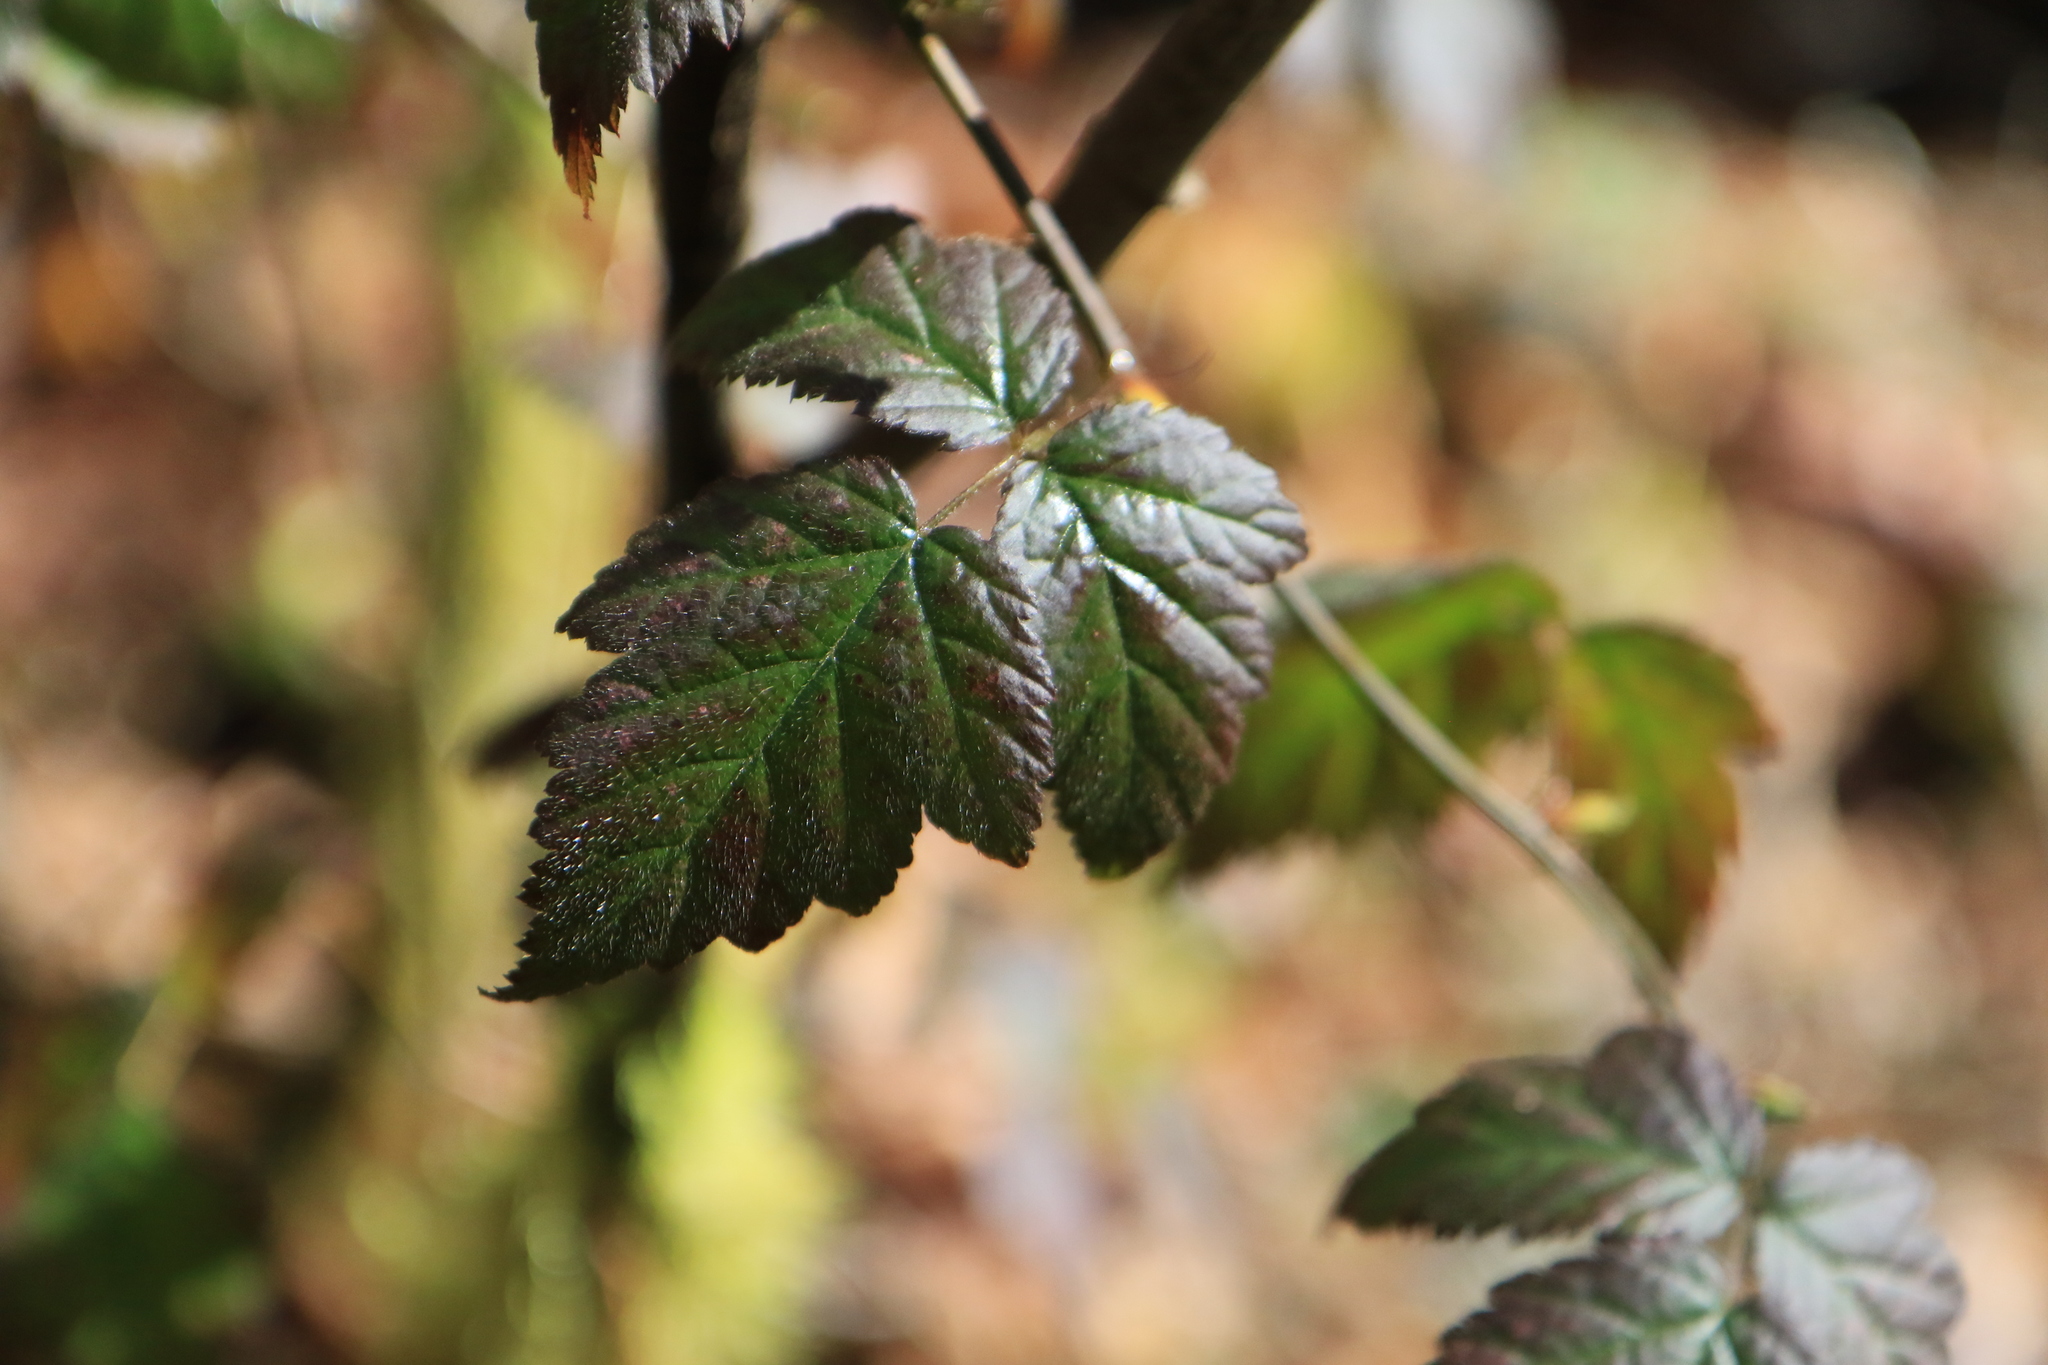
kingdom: Plantae
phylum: Tracheophyta
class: Magnoliopsida
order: Rosales
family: Rosaceae
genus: Rubus
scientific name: Rubus ursinus
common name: Pacific blackberry
